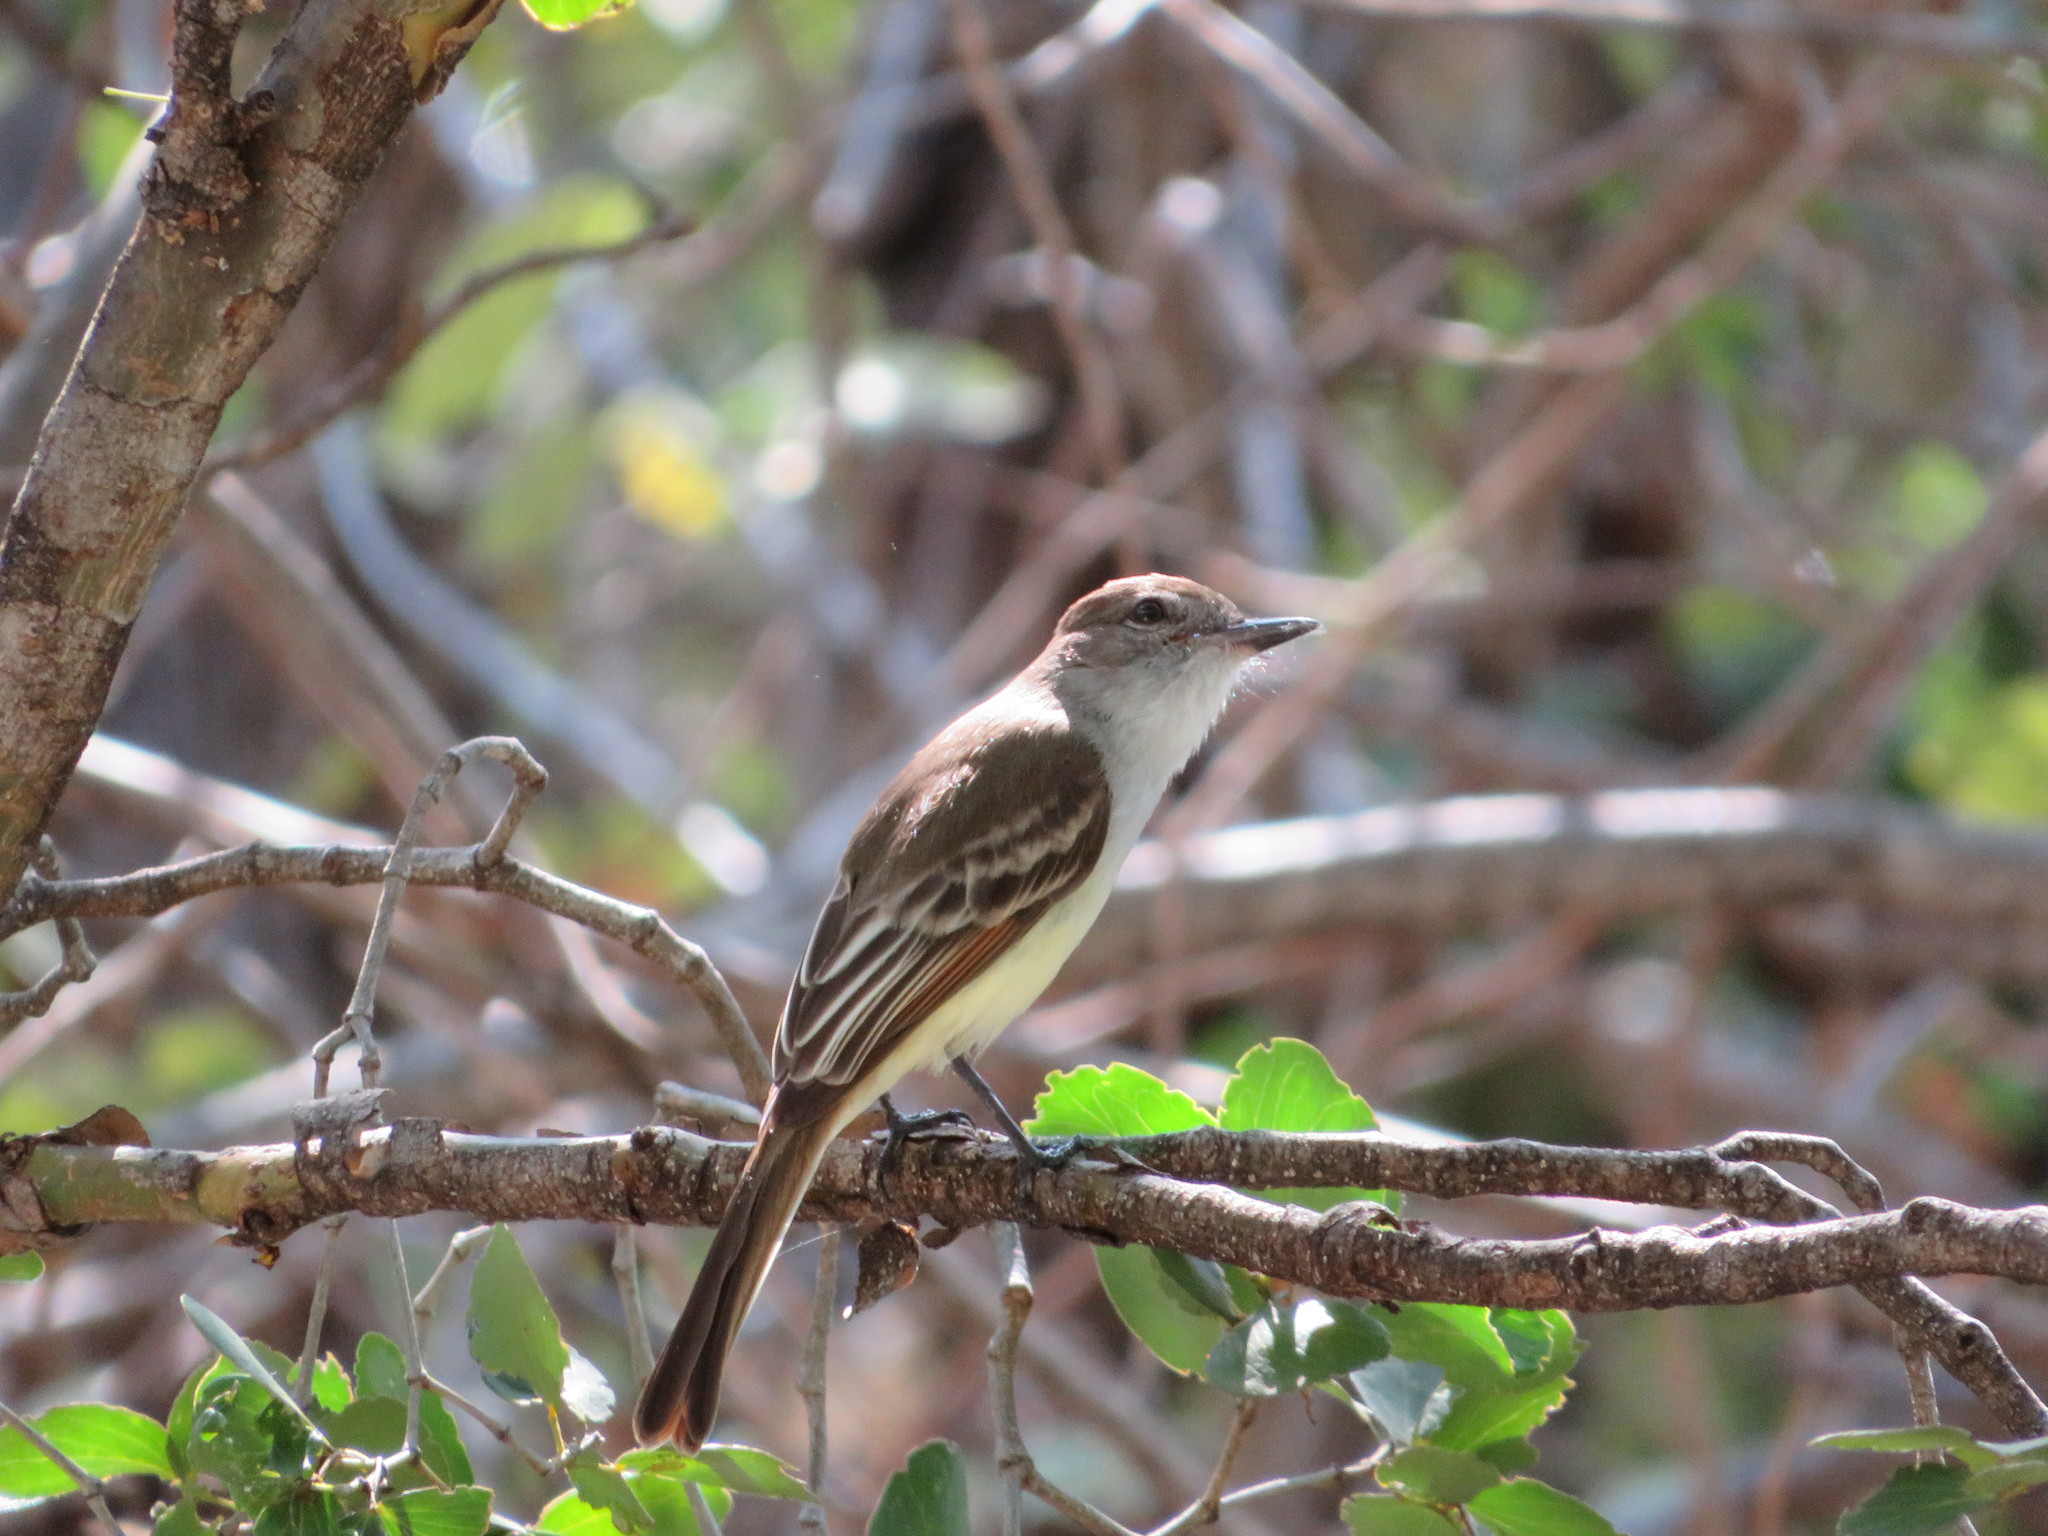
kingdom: Animalia
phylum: Chordata
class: Aves
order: Passeriformes
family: Tyrannidae
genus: Myiarchus
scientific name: Myiarchus stolidus
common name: Stolid flycatcher
